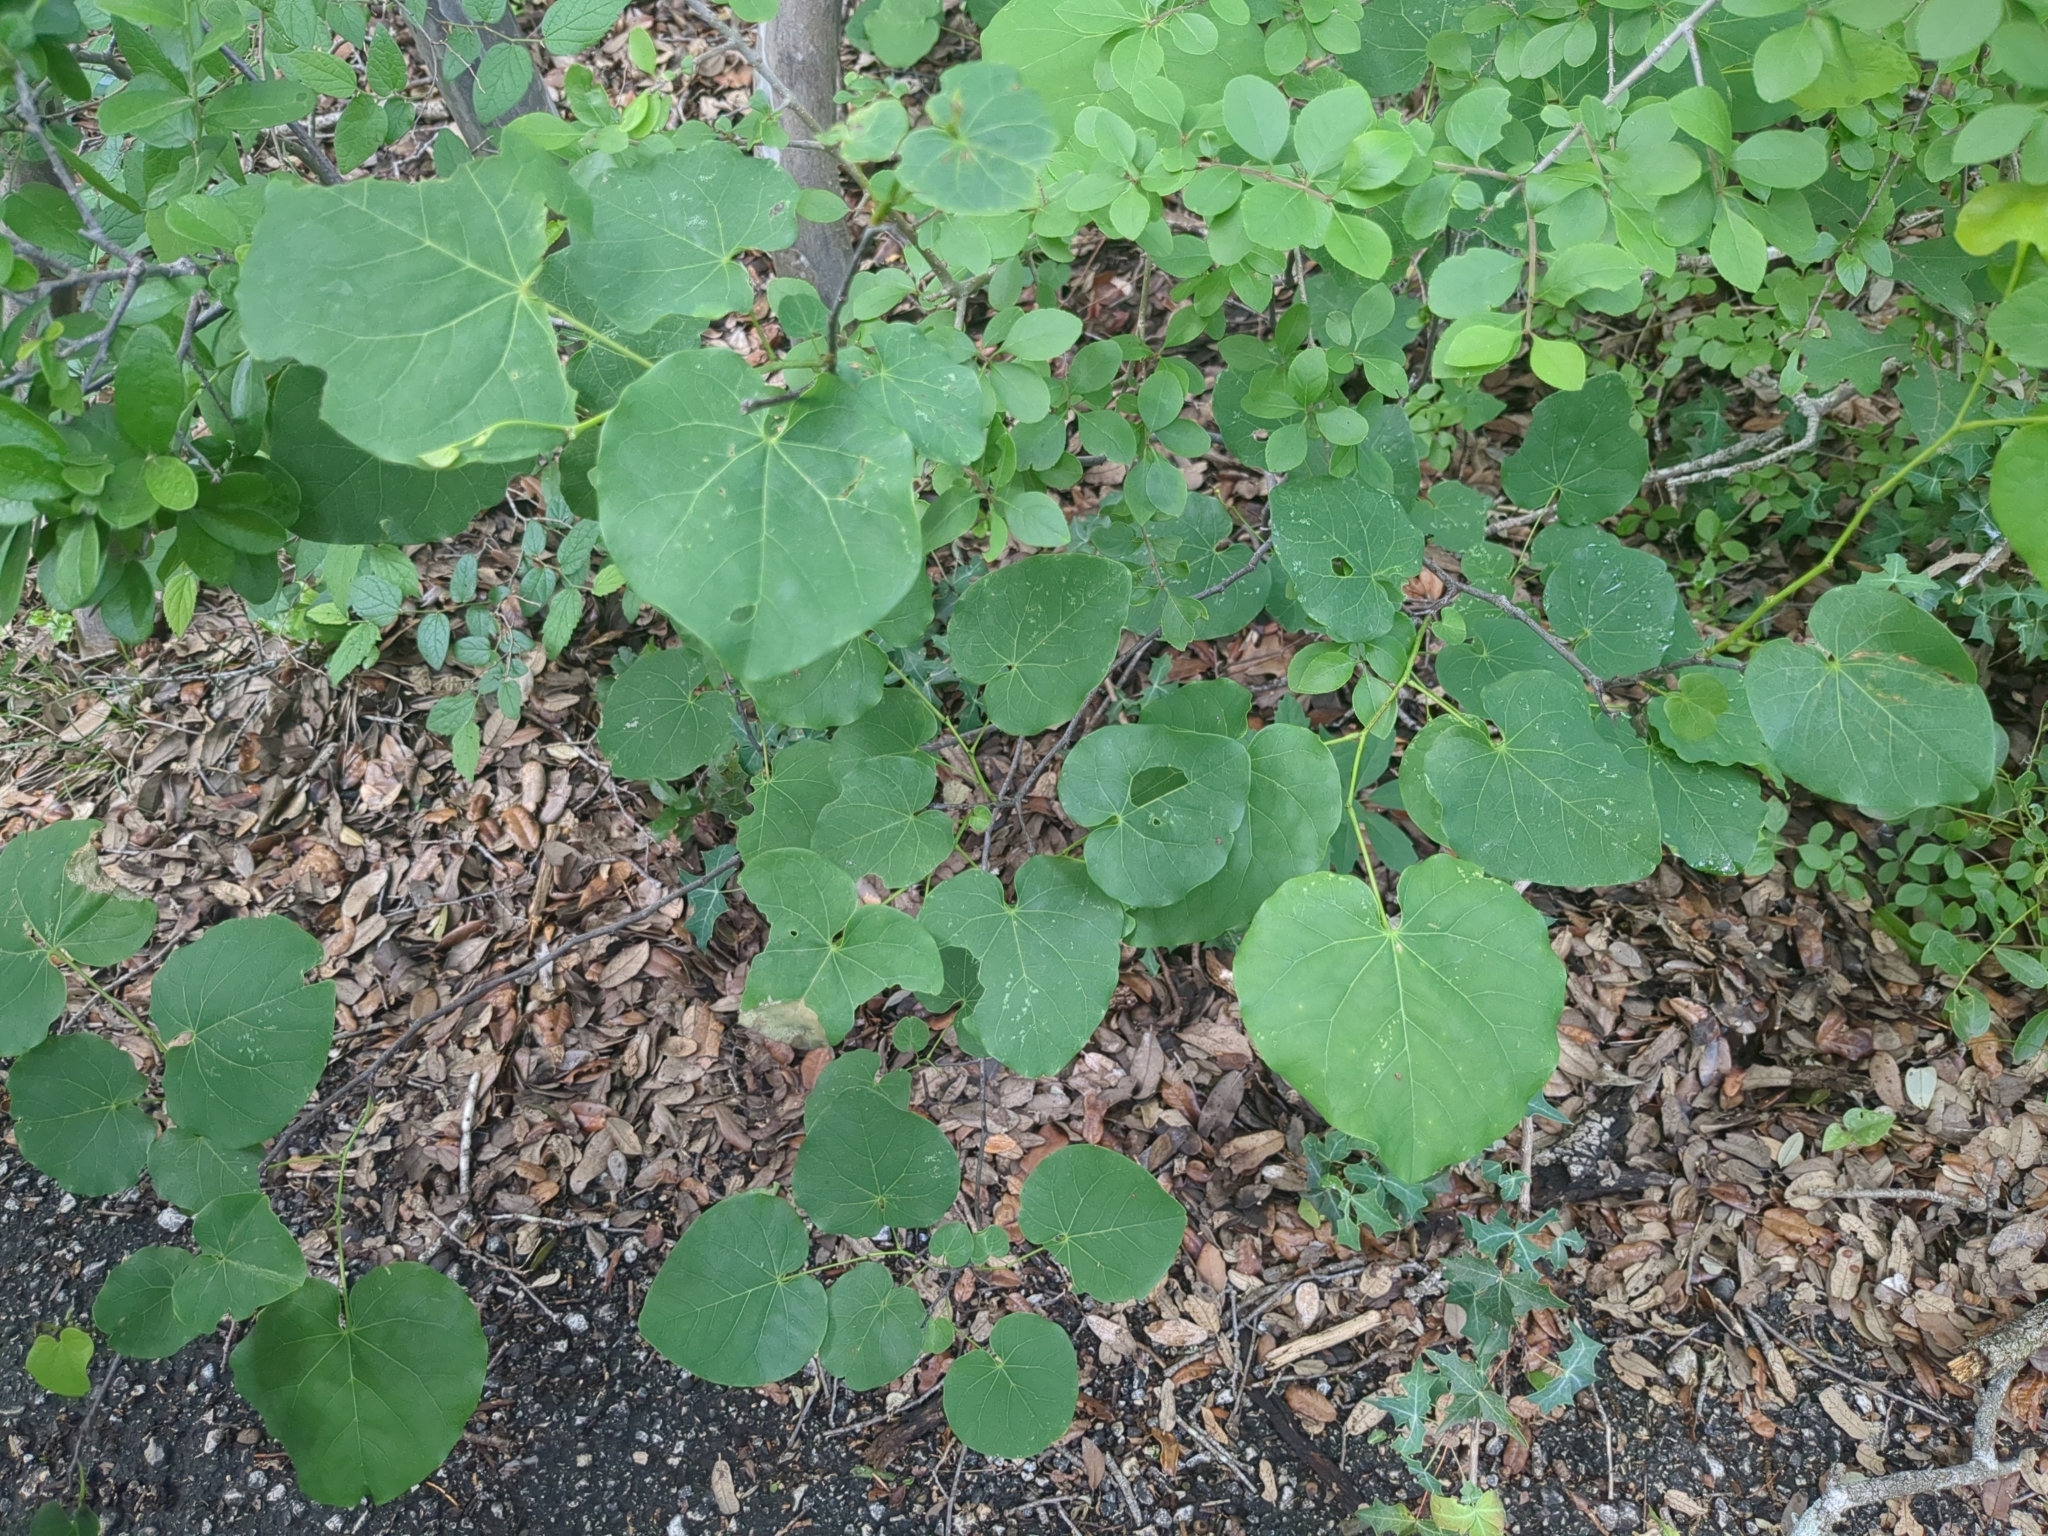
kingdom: Plantae
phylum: Tracheophyta
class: Magnoliopsida
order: Fabales
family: Fabaceae
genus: Cercis
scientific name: Cercis canadensis
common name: Eastern redbud
